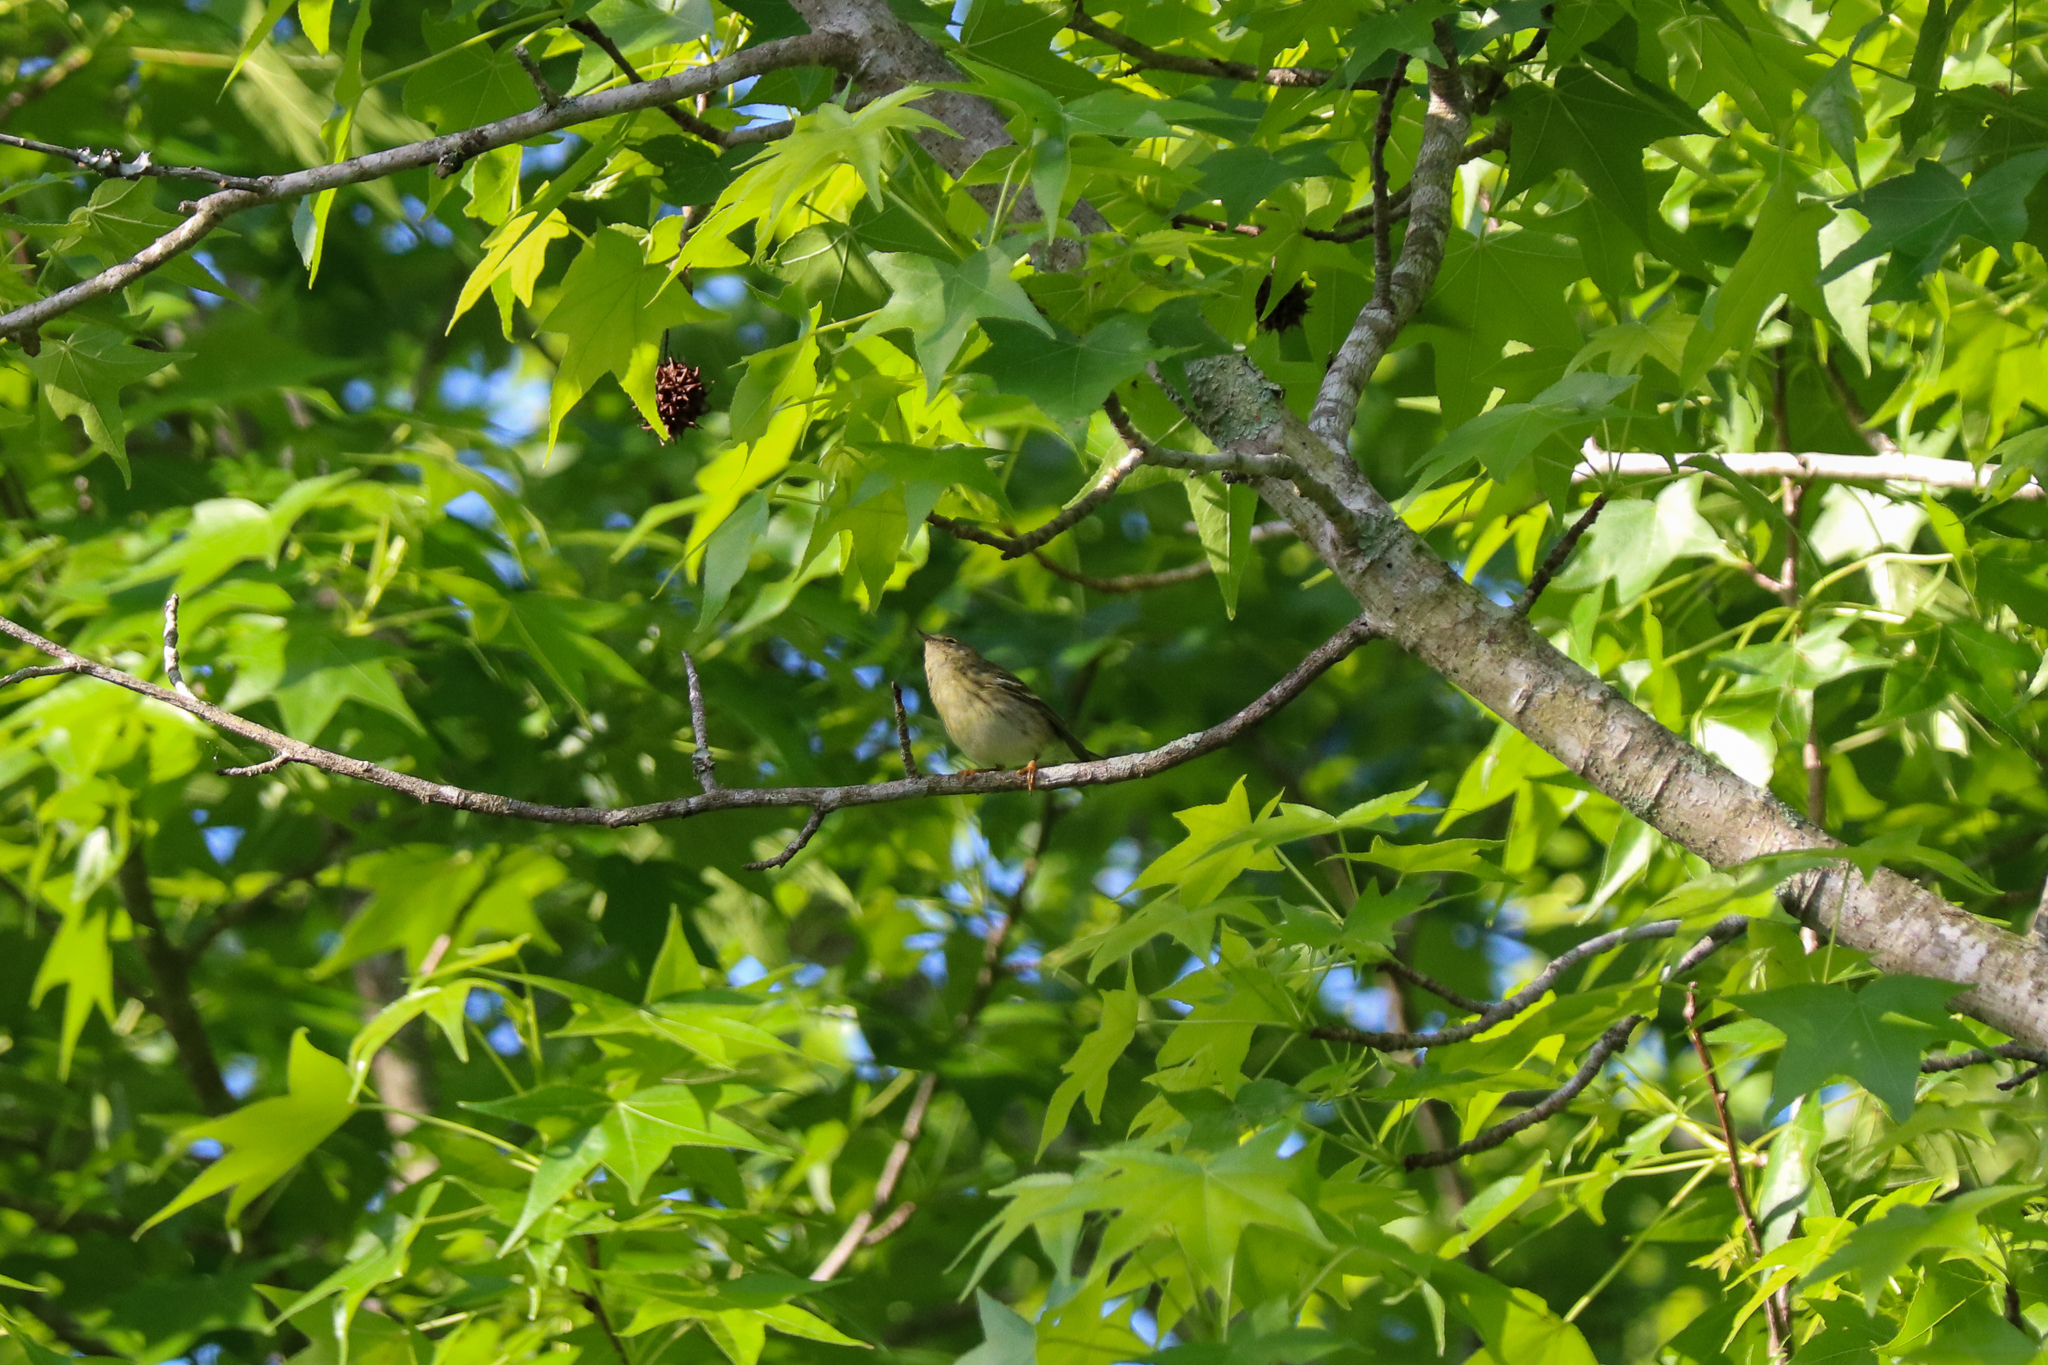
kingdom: Animalia
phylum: Chordata
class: Aves
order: Passeriformes
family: Parulidae
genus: Setophaga
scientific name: Setophaga striata
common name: Blackpoll warbler
